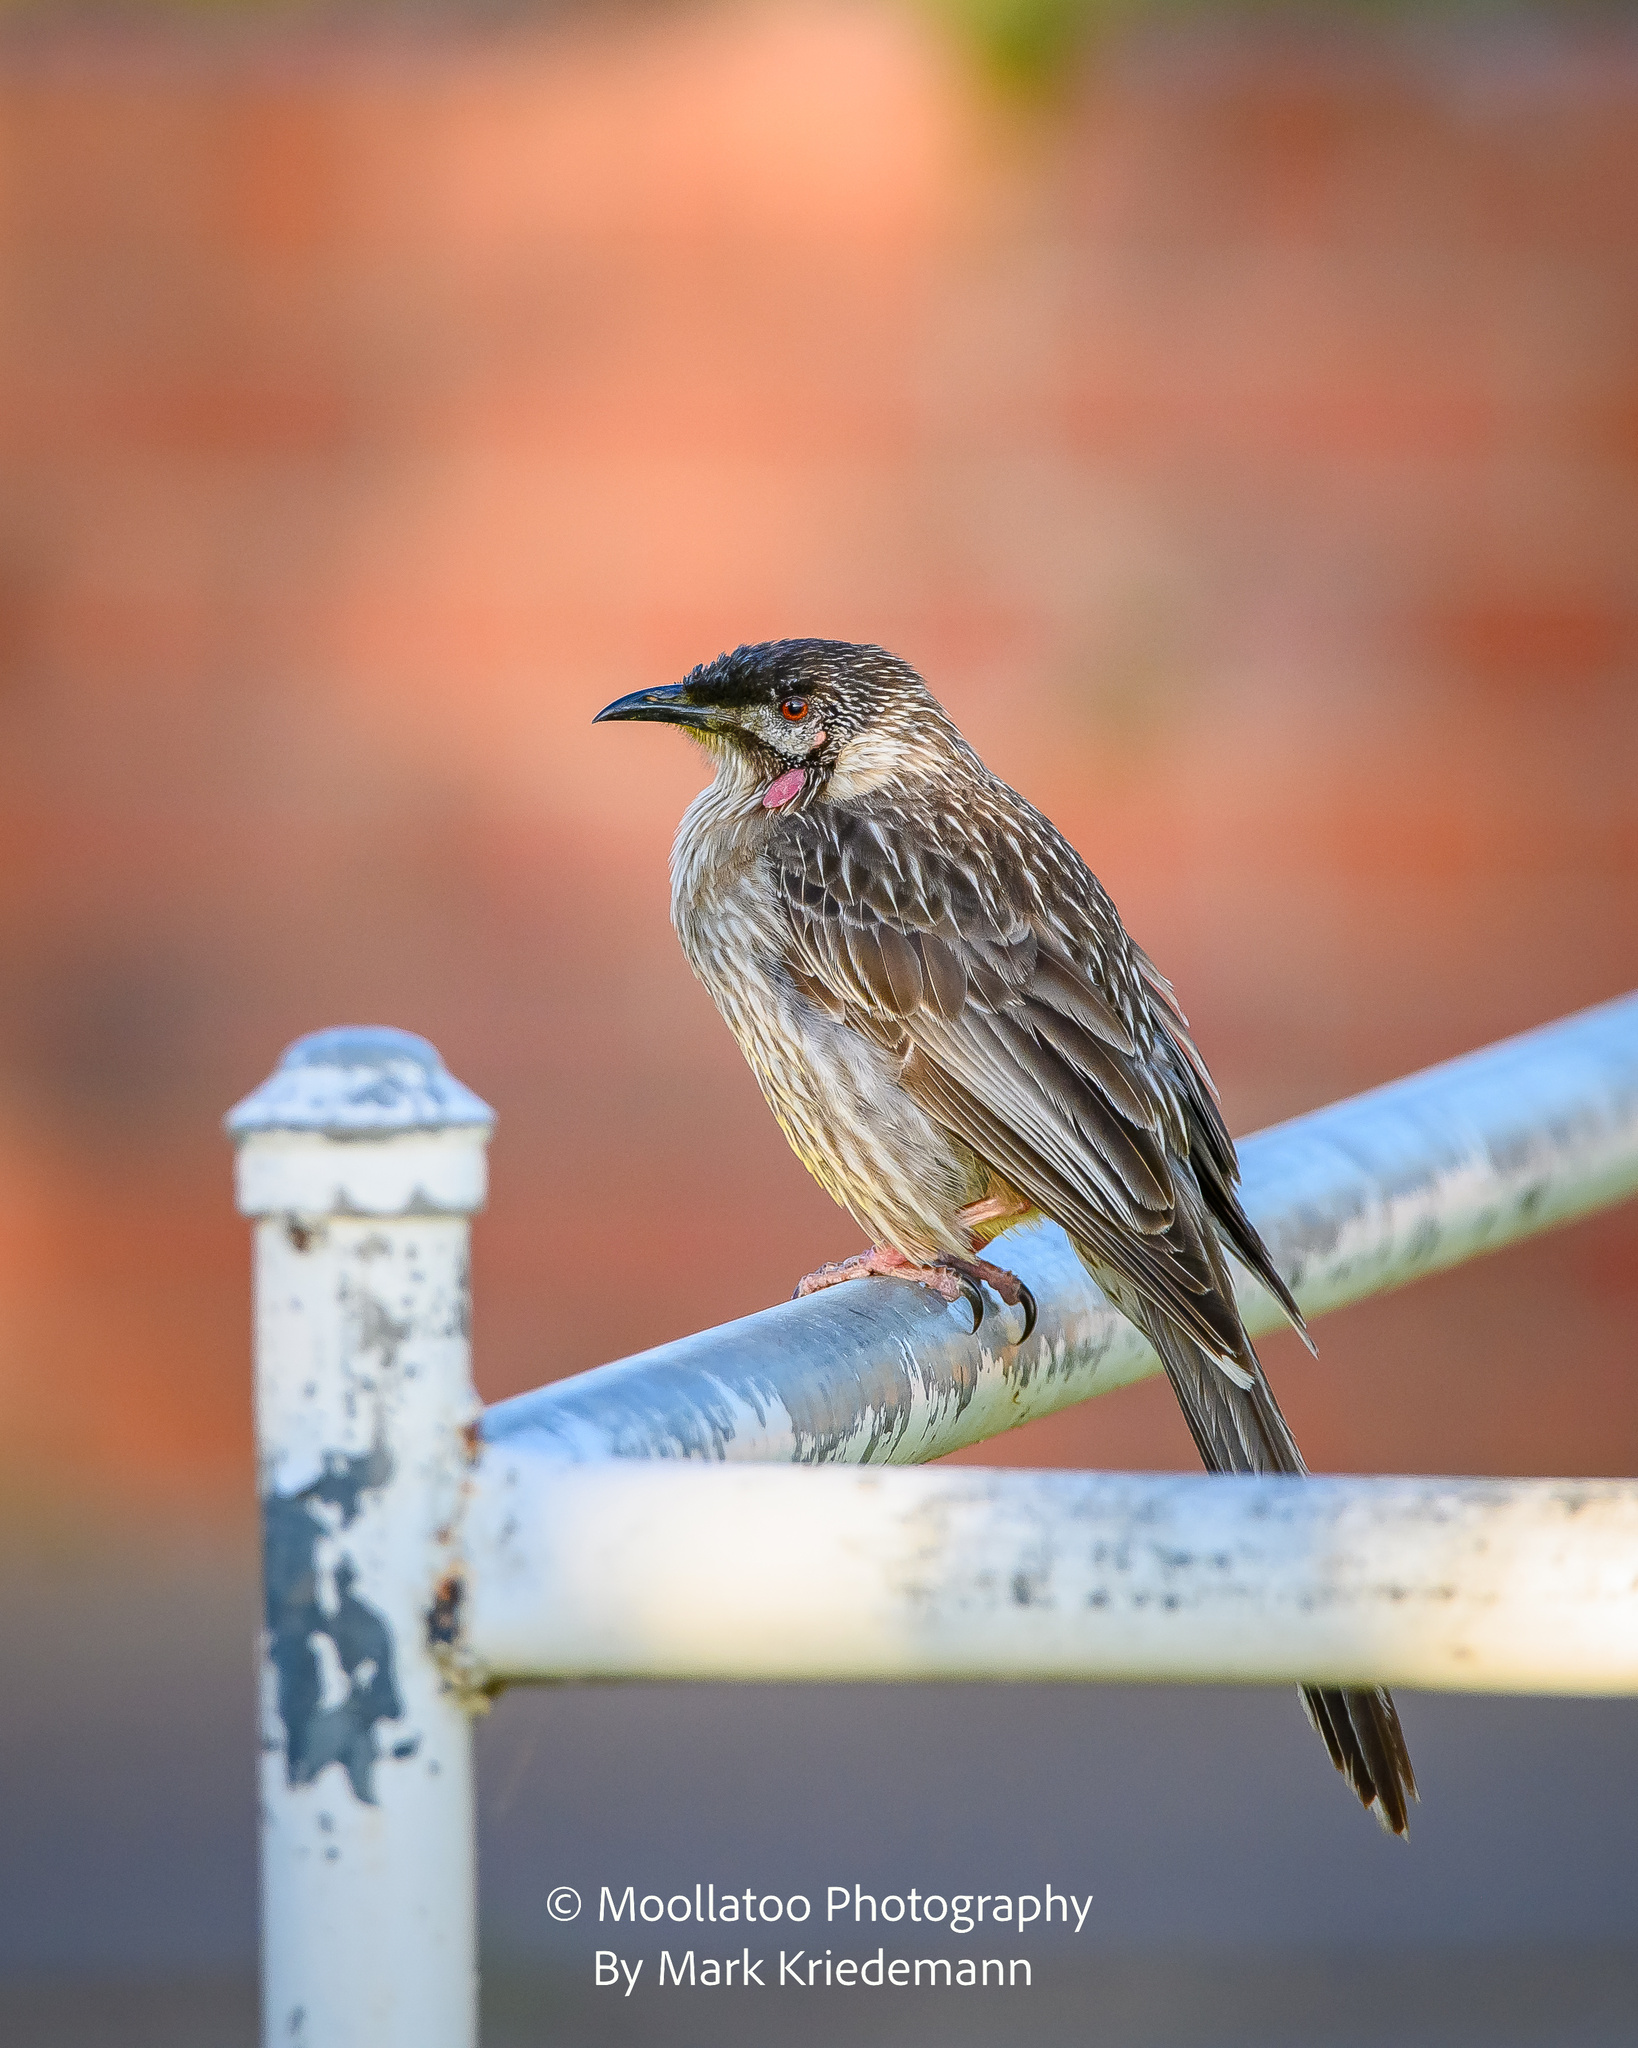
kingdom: Animalia
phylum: Chordata
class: Aves
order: Passeriformes
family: Meliphagidae
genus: Anthochaera
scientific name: Anthochaera carunculata
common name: Red wattlebird
